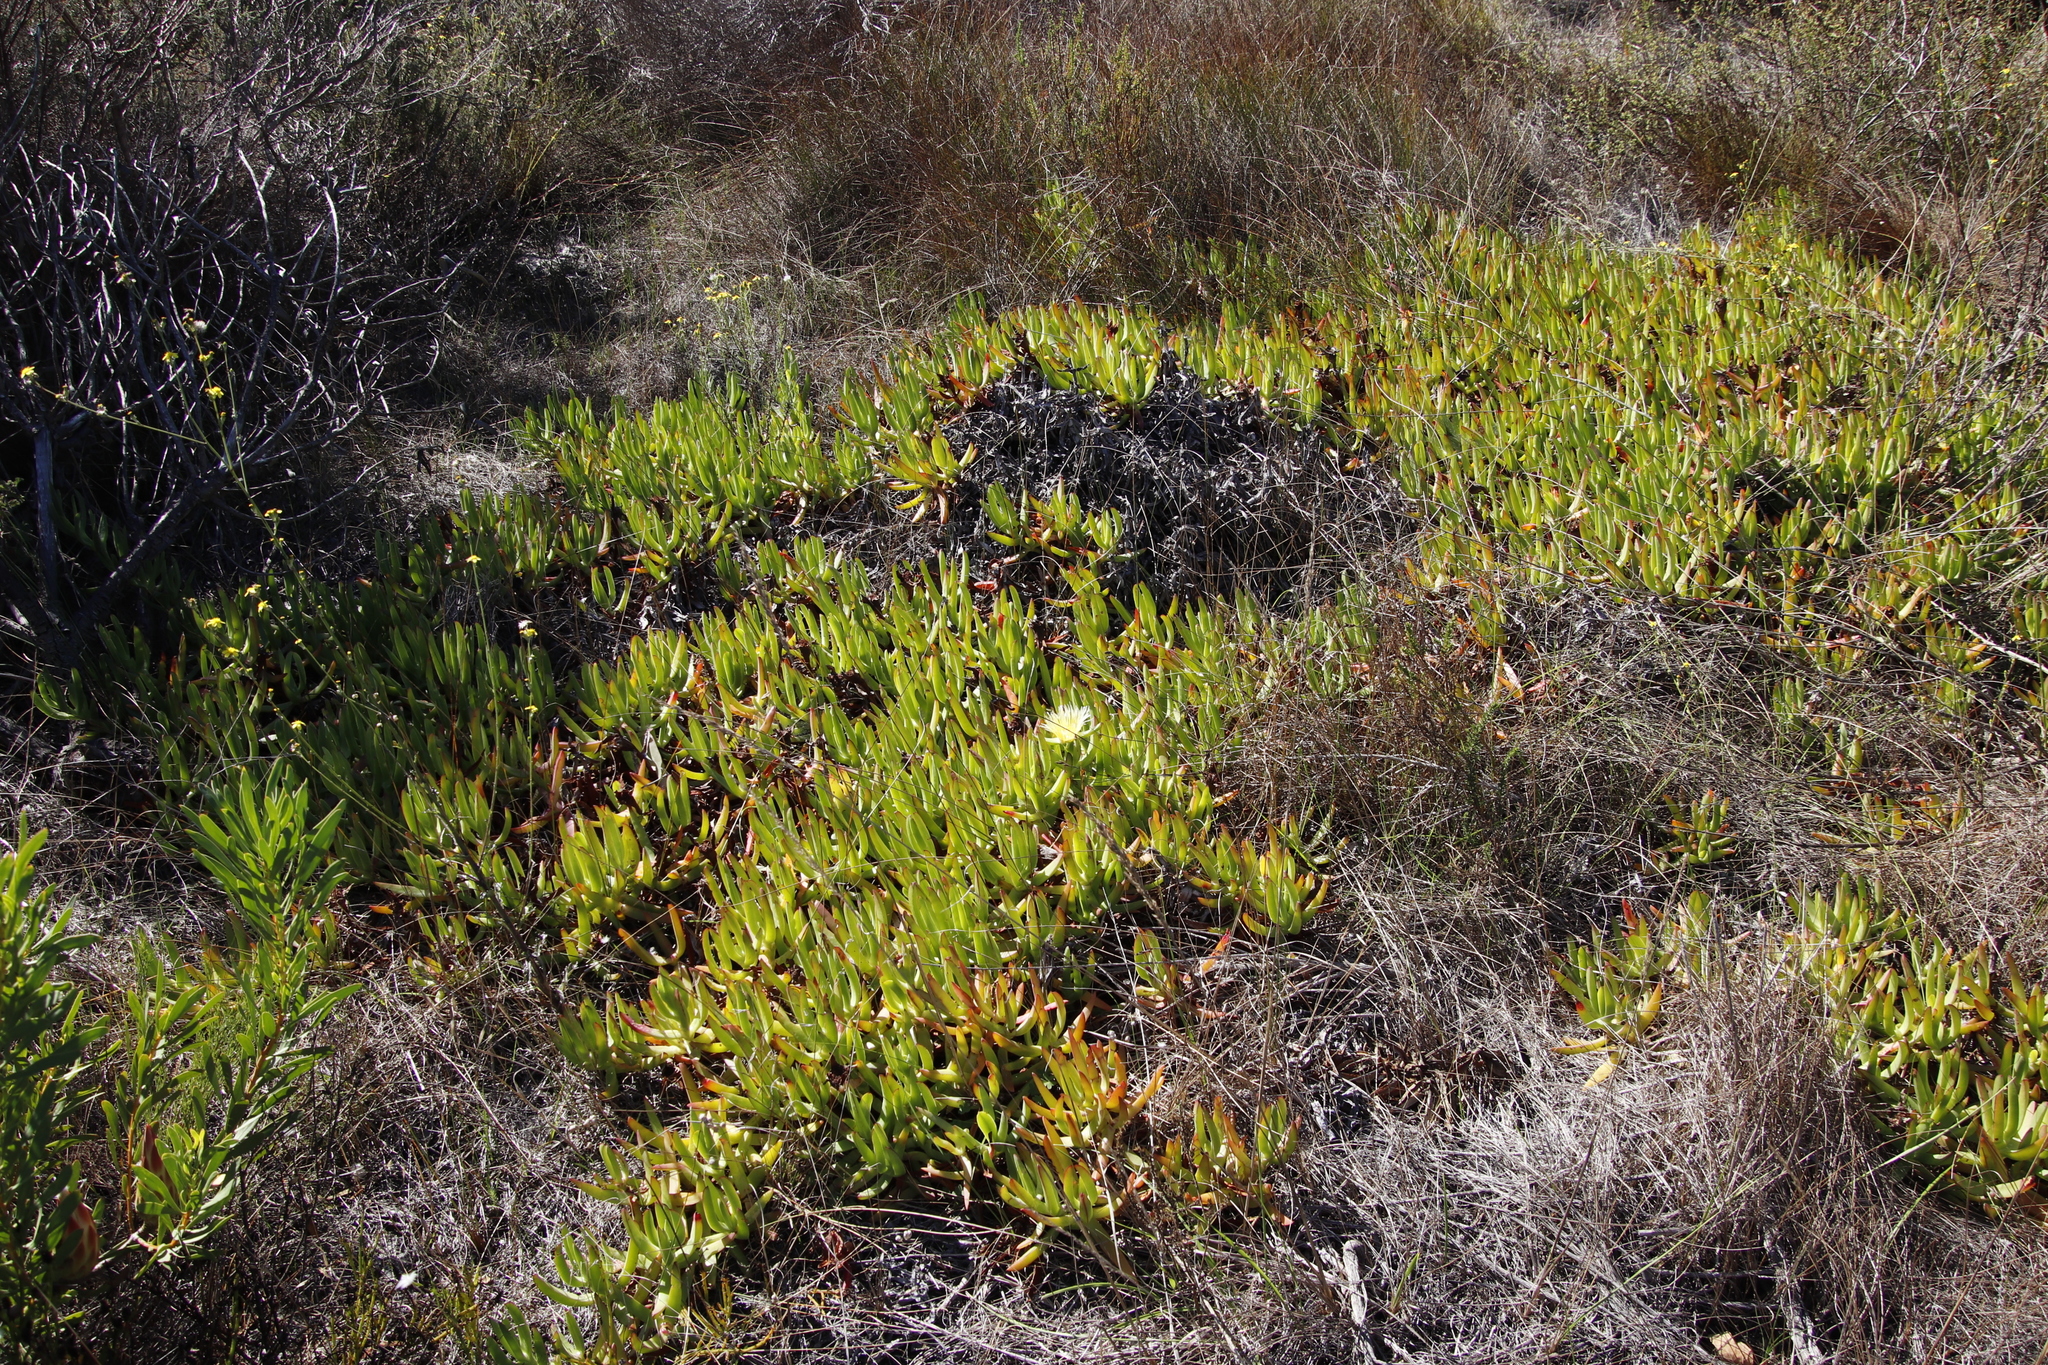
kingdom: Plantae
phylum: Tracheophyta
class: Magnoliopsida
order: Caryophyllales
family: Aizoaceae
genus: Carpobrotus
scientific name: Carpobrotus edulis
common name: Hottentot-fig
